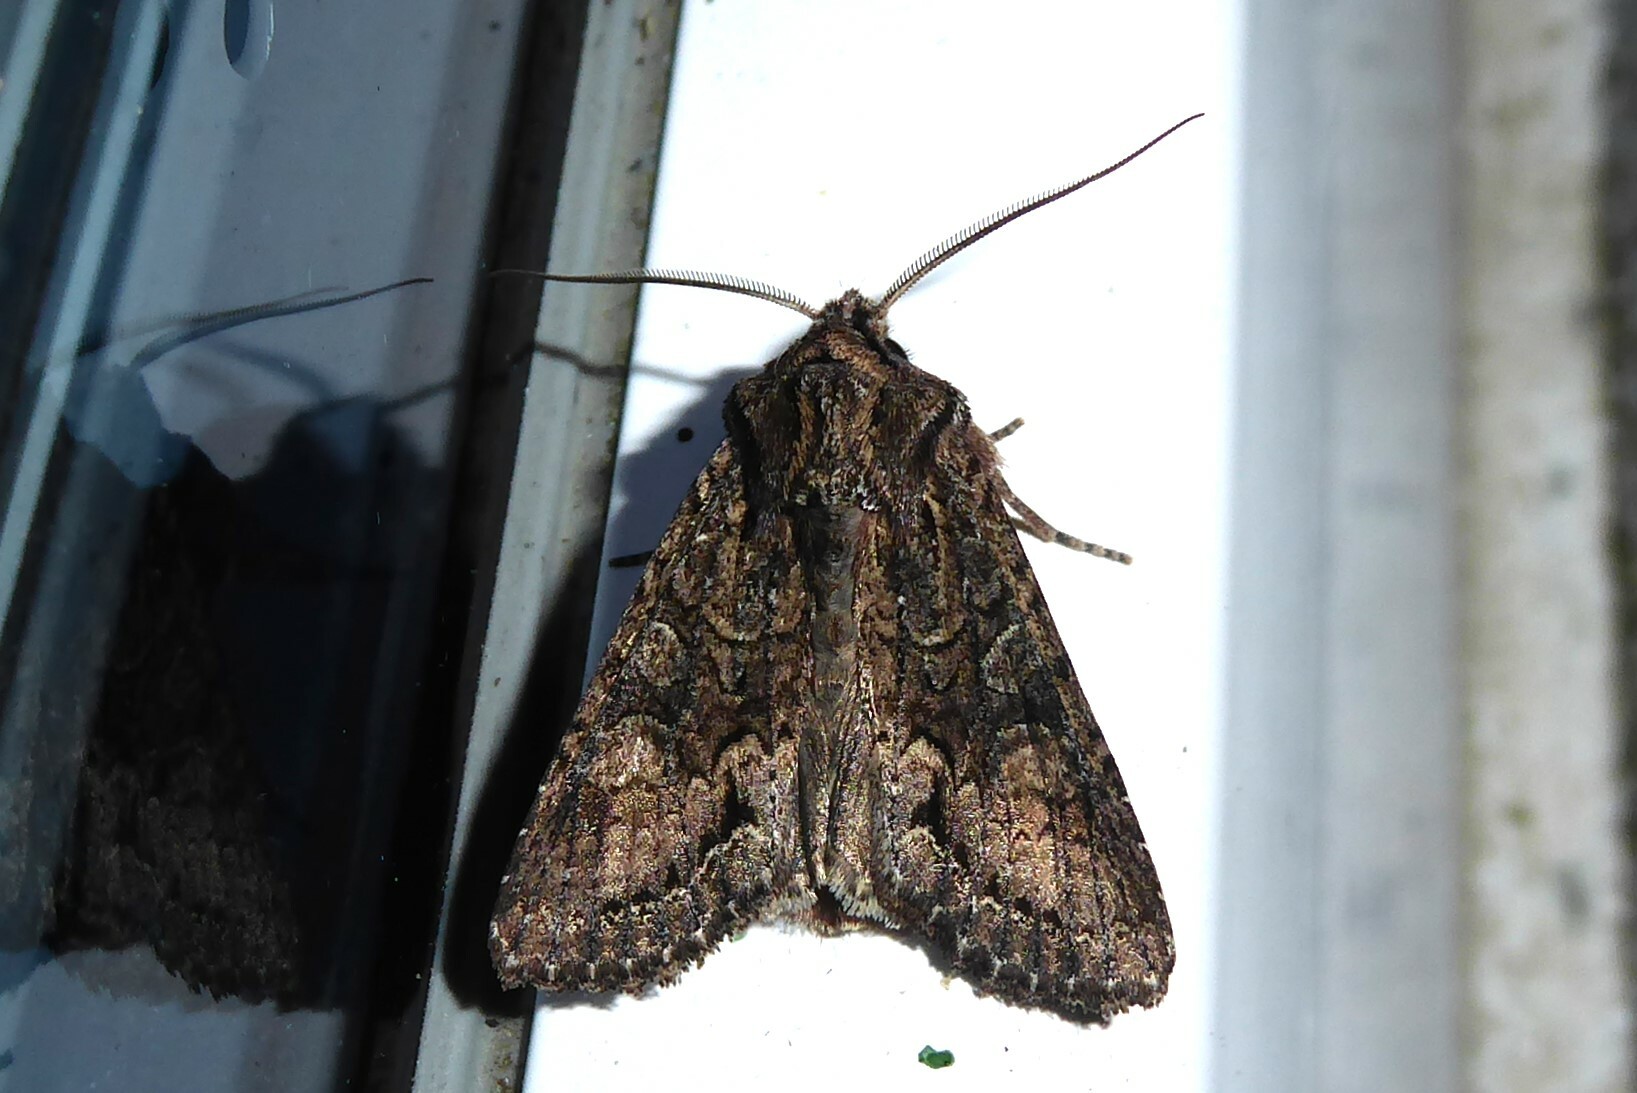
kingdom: Animalia
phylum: Arthropoda
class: Insecta
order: Lepidoptera
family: Noctuidae
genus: Ichneutica
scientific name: Ichneutica mutans
